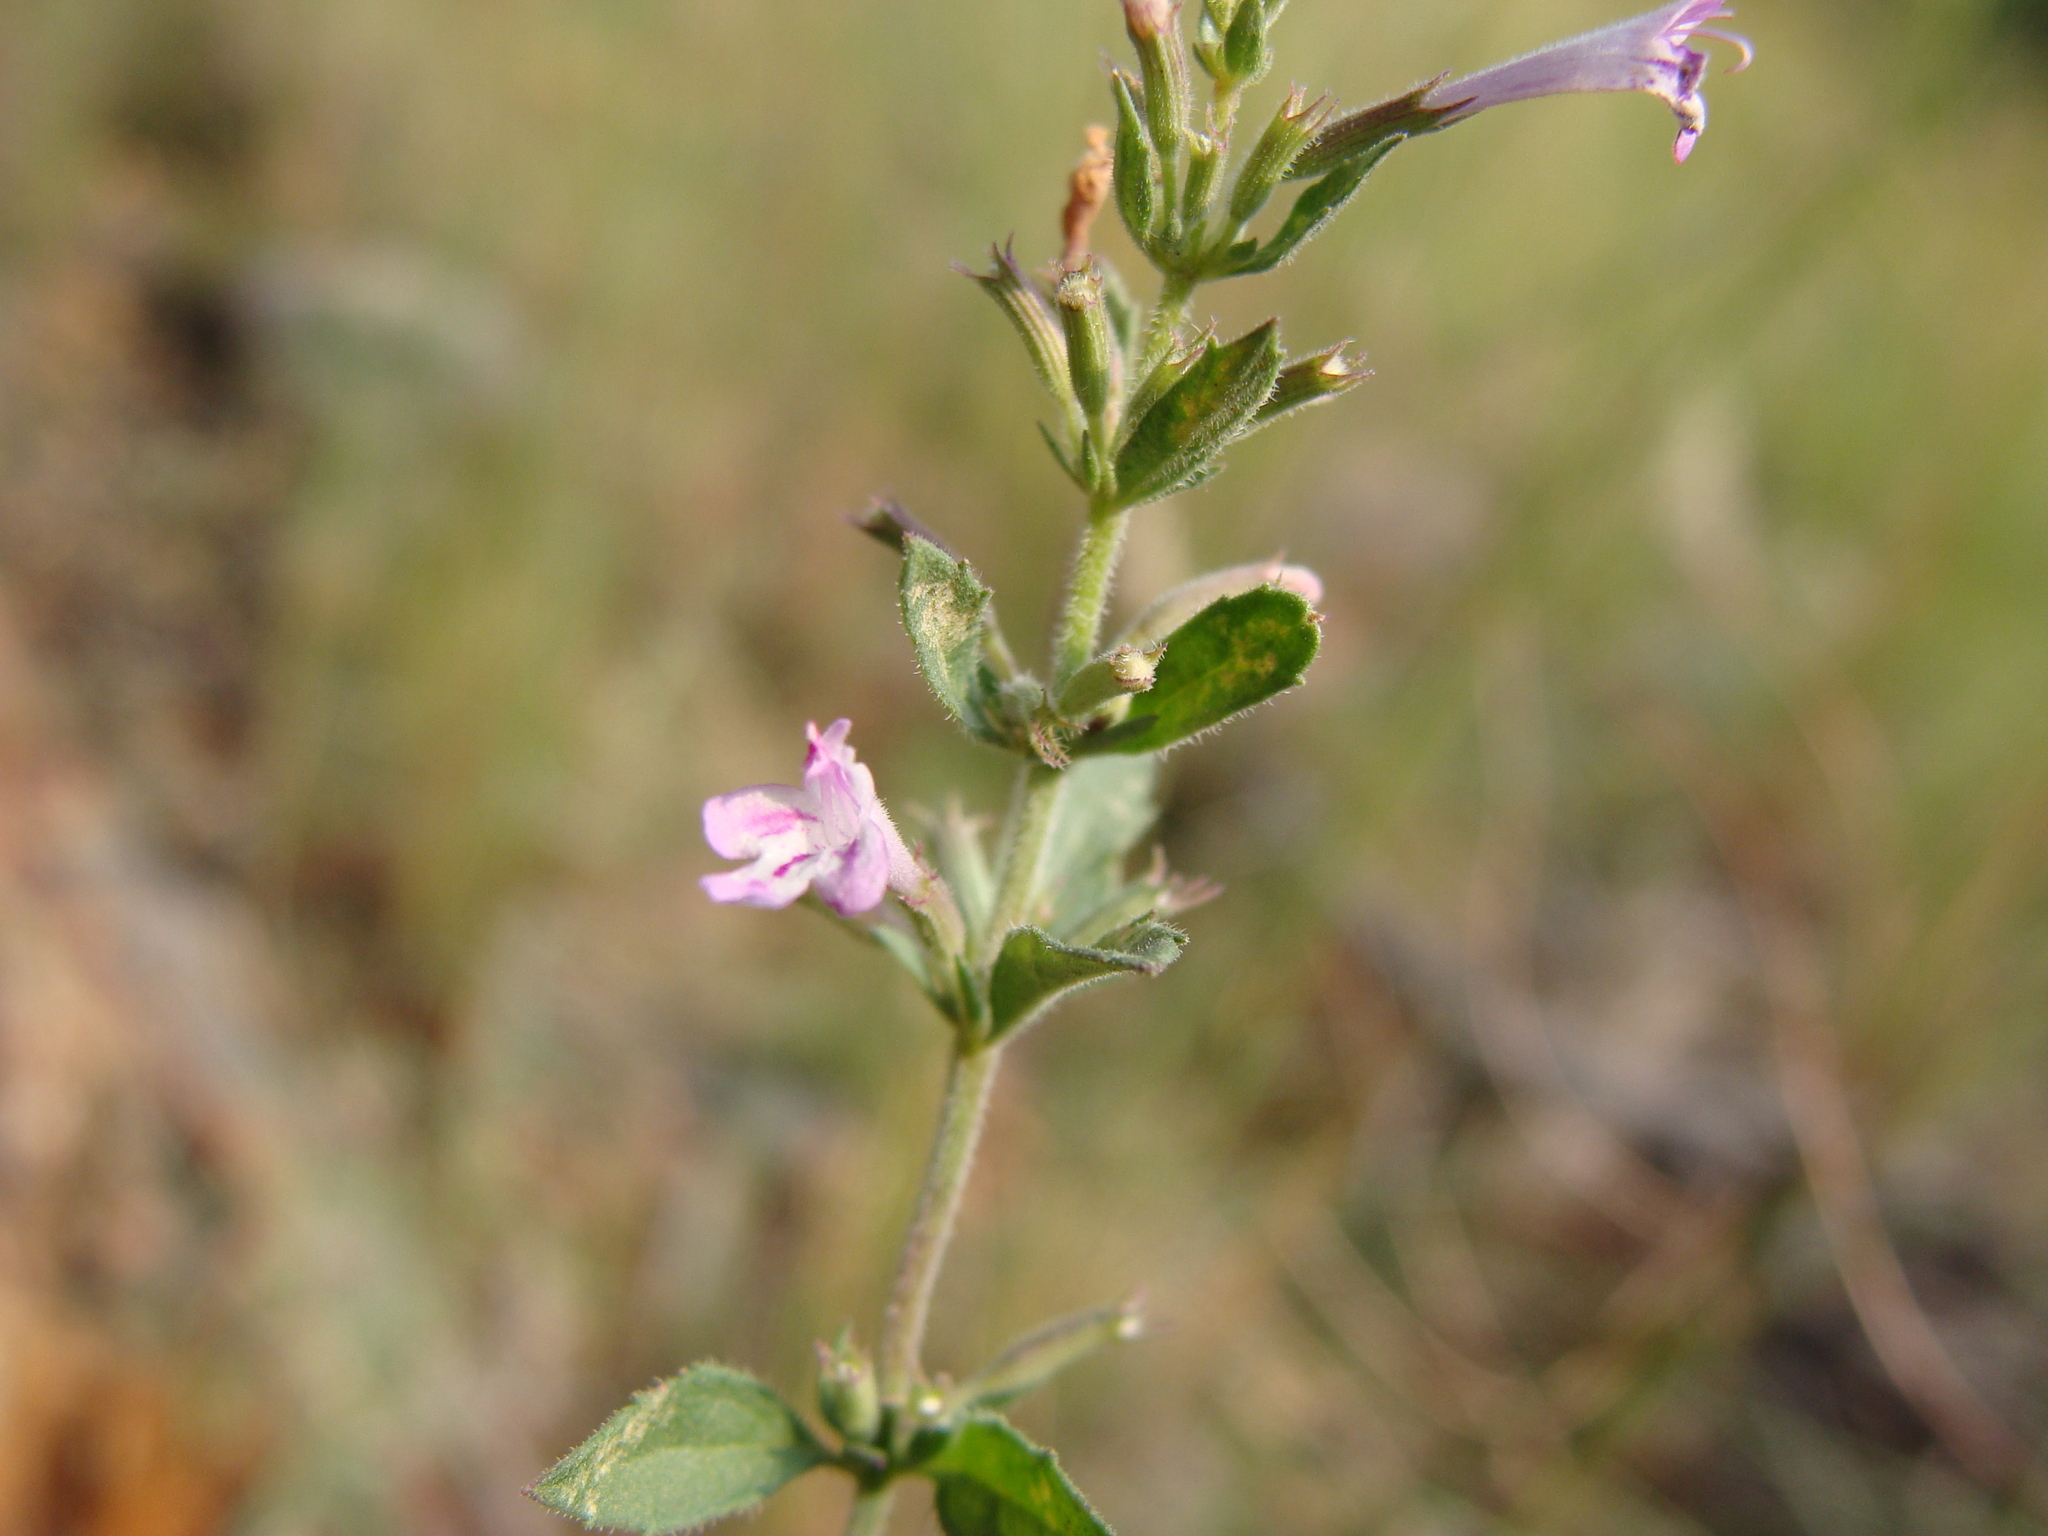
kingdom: Plantae
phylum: Tracheophyta
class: Magnoliopsida
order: Lamiales
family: Lamiaceae
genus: Hedeoma
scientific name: Hedeoma dentata
